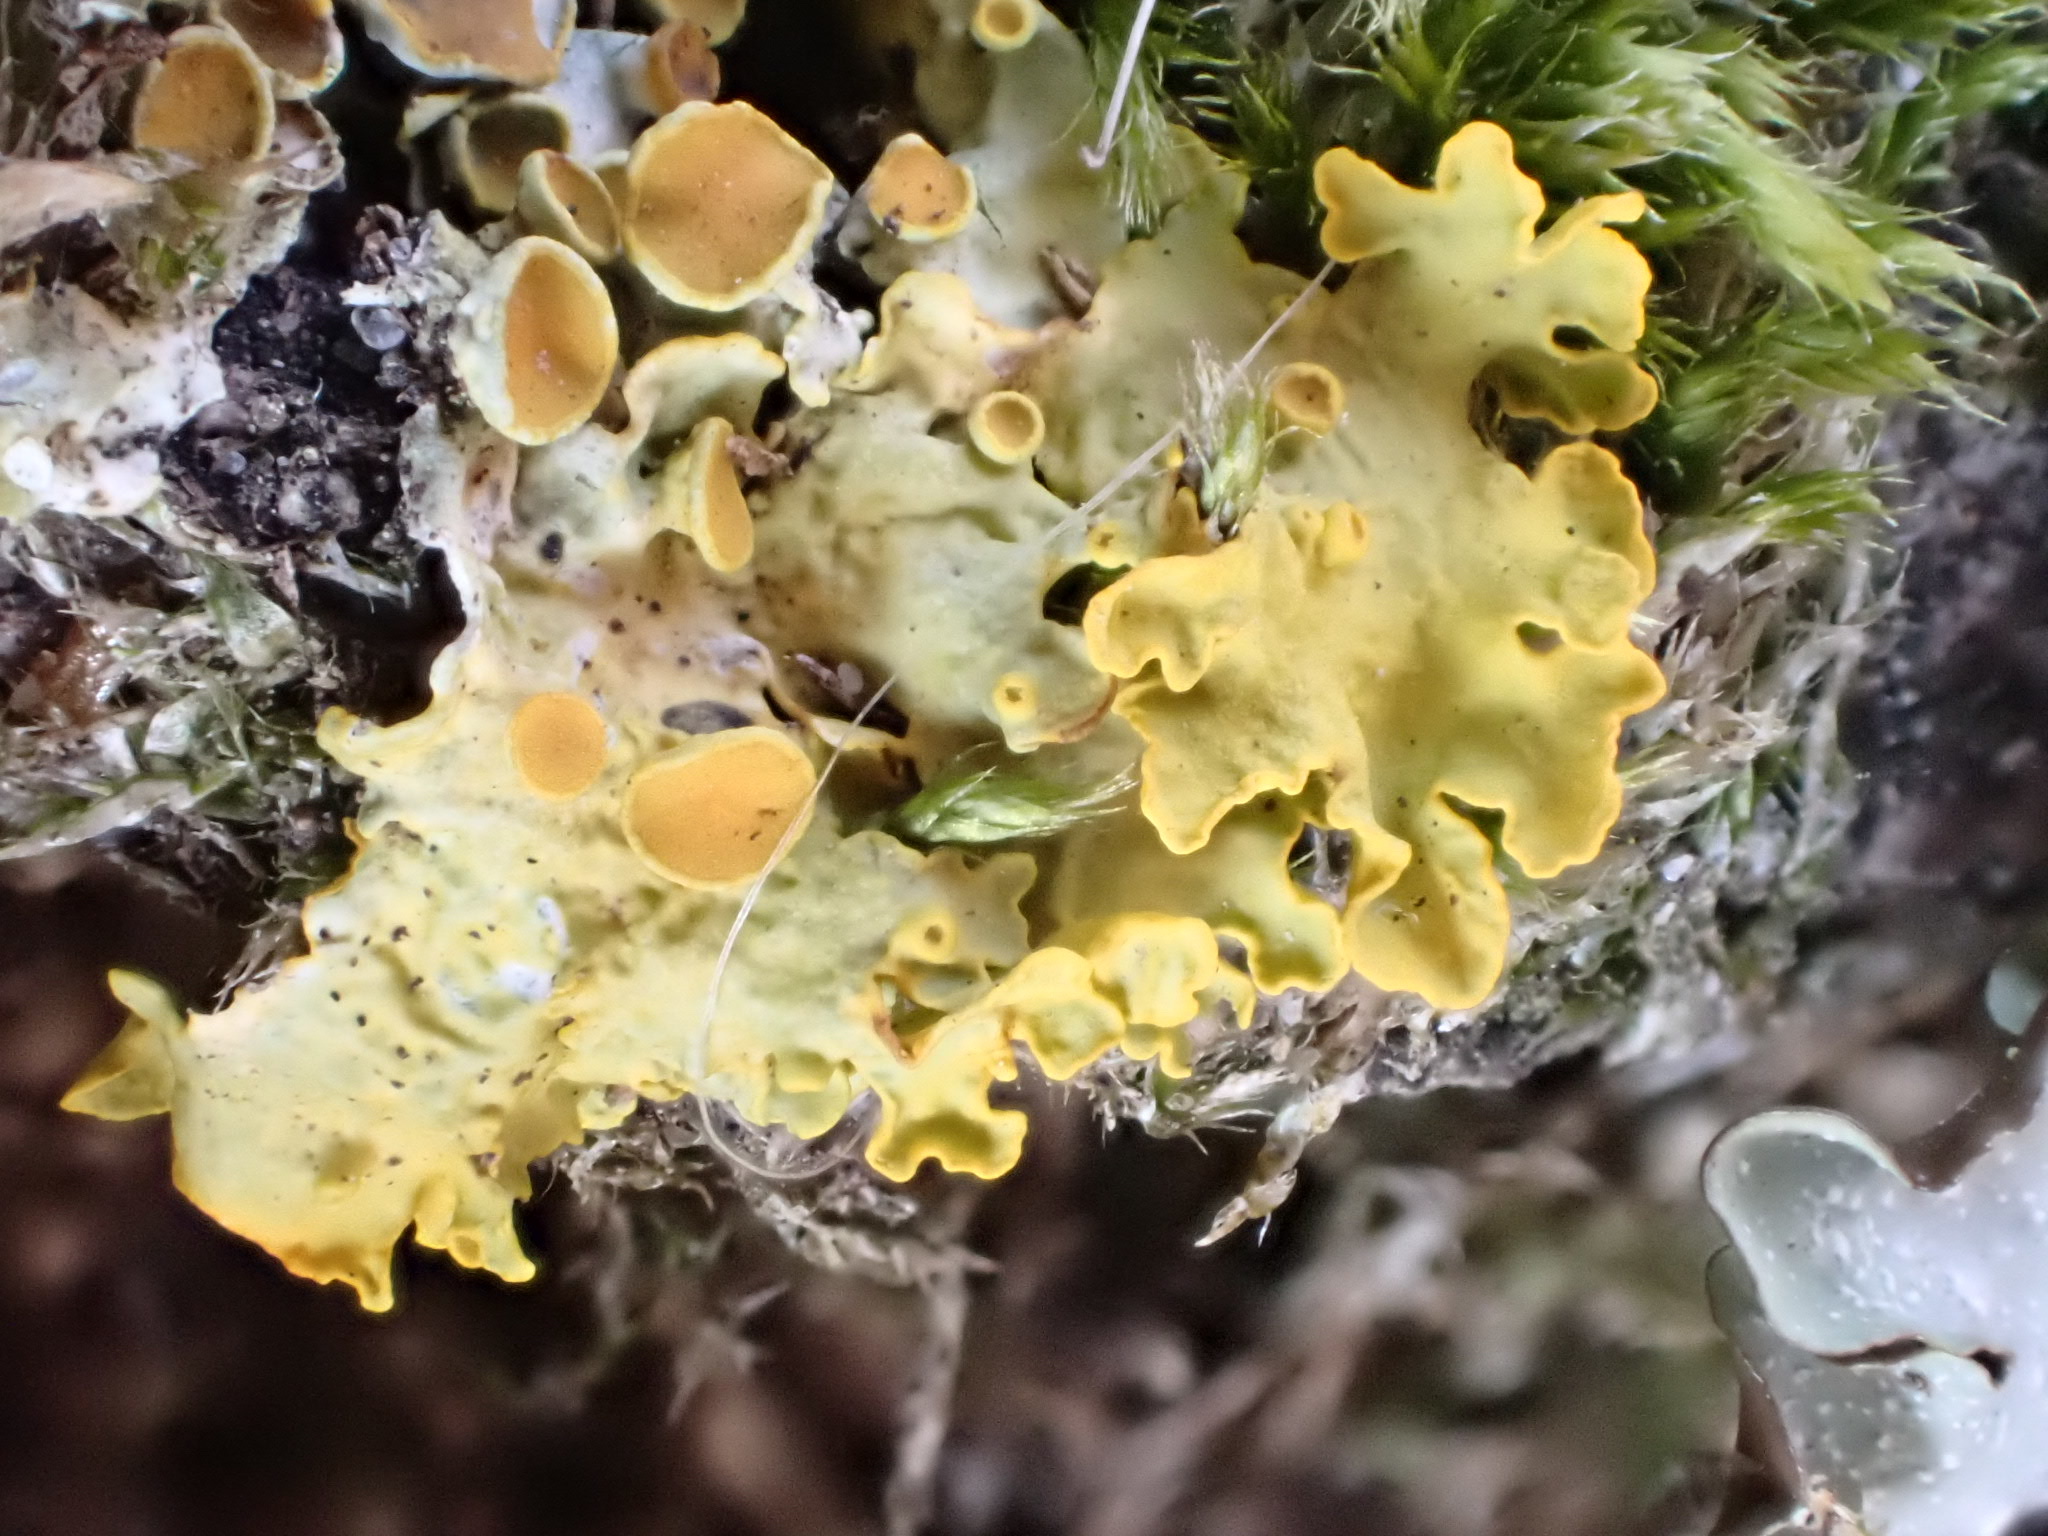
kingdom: Fungi
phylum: Ascomycota
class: Lecanoromycetes
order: Teloschistales
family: Teloschistaceae
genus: Xanthoria
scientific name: Xanthoria parietina
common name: Common orange lichen
